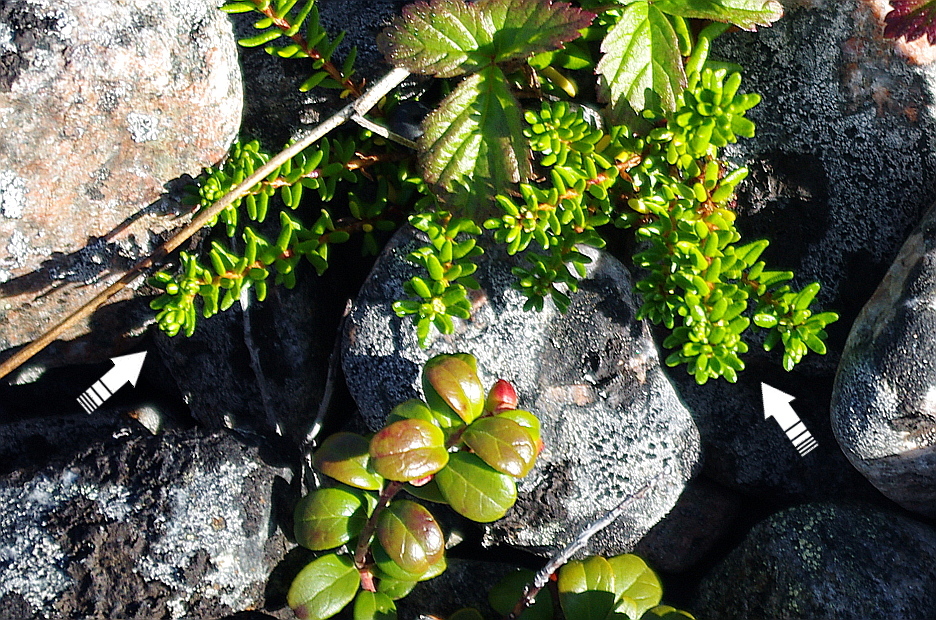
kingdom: Plantae
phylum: Tracheophyta
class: Magnoliopsida
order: Ericales
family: Ericaceae
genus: Empetrum
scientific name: Empetrum nigrum
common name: Black crowberry
